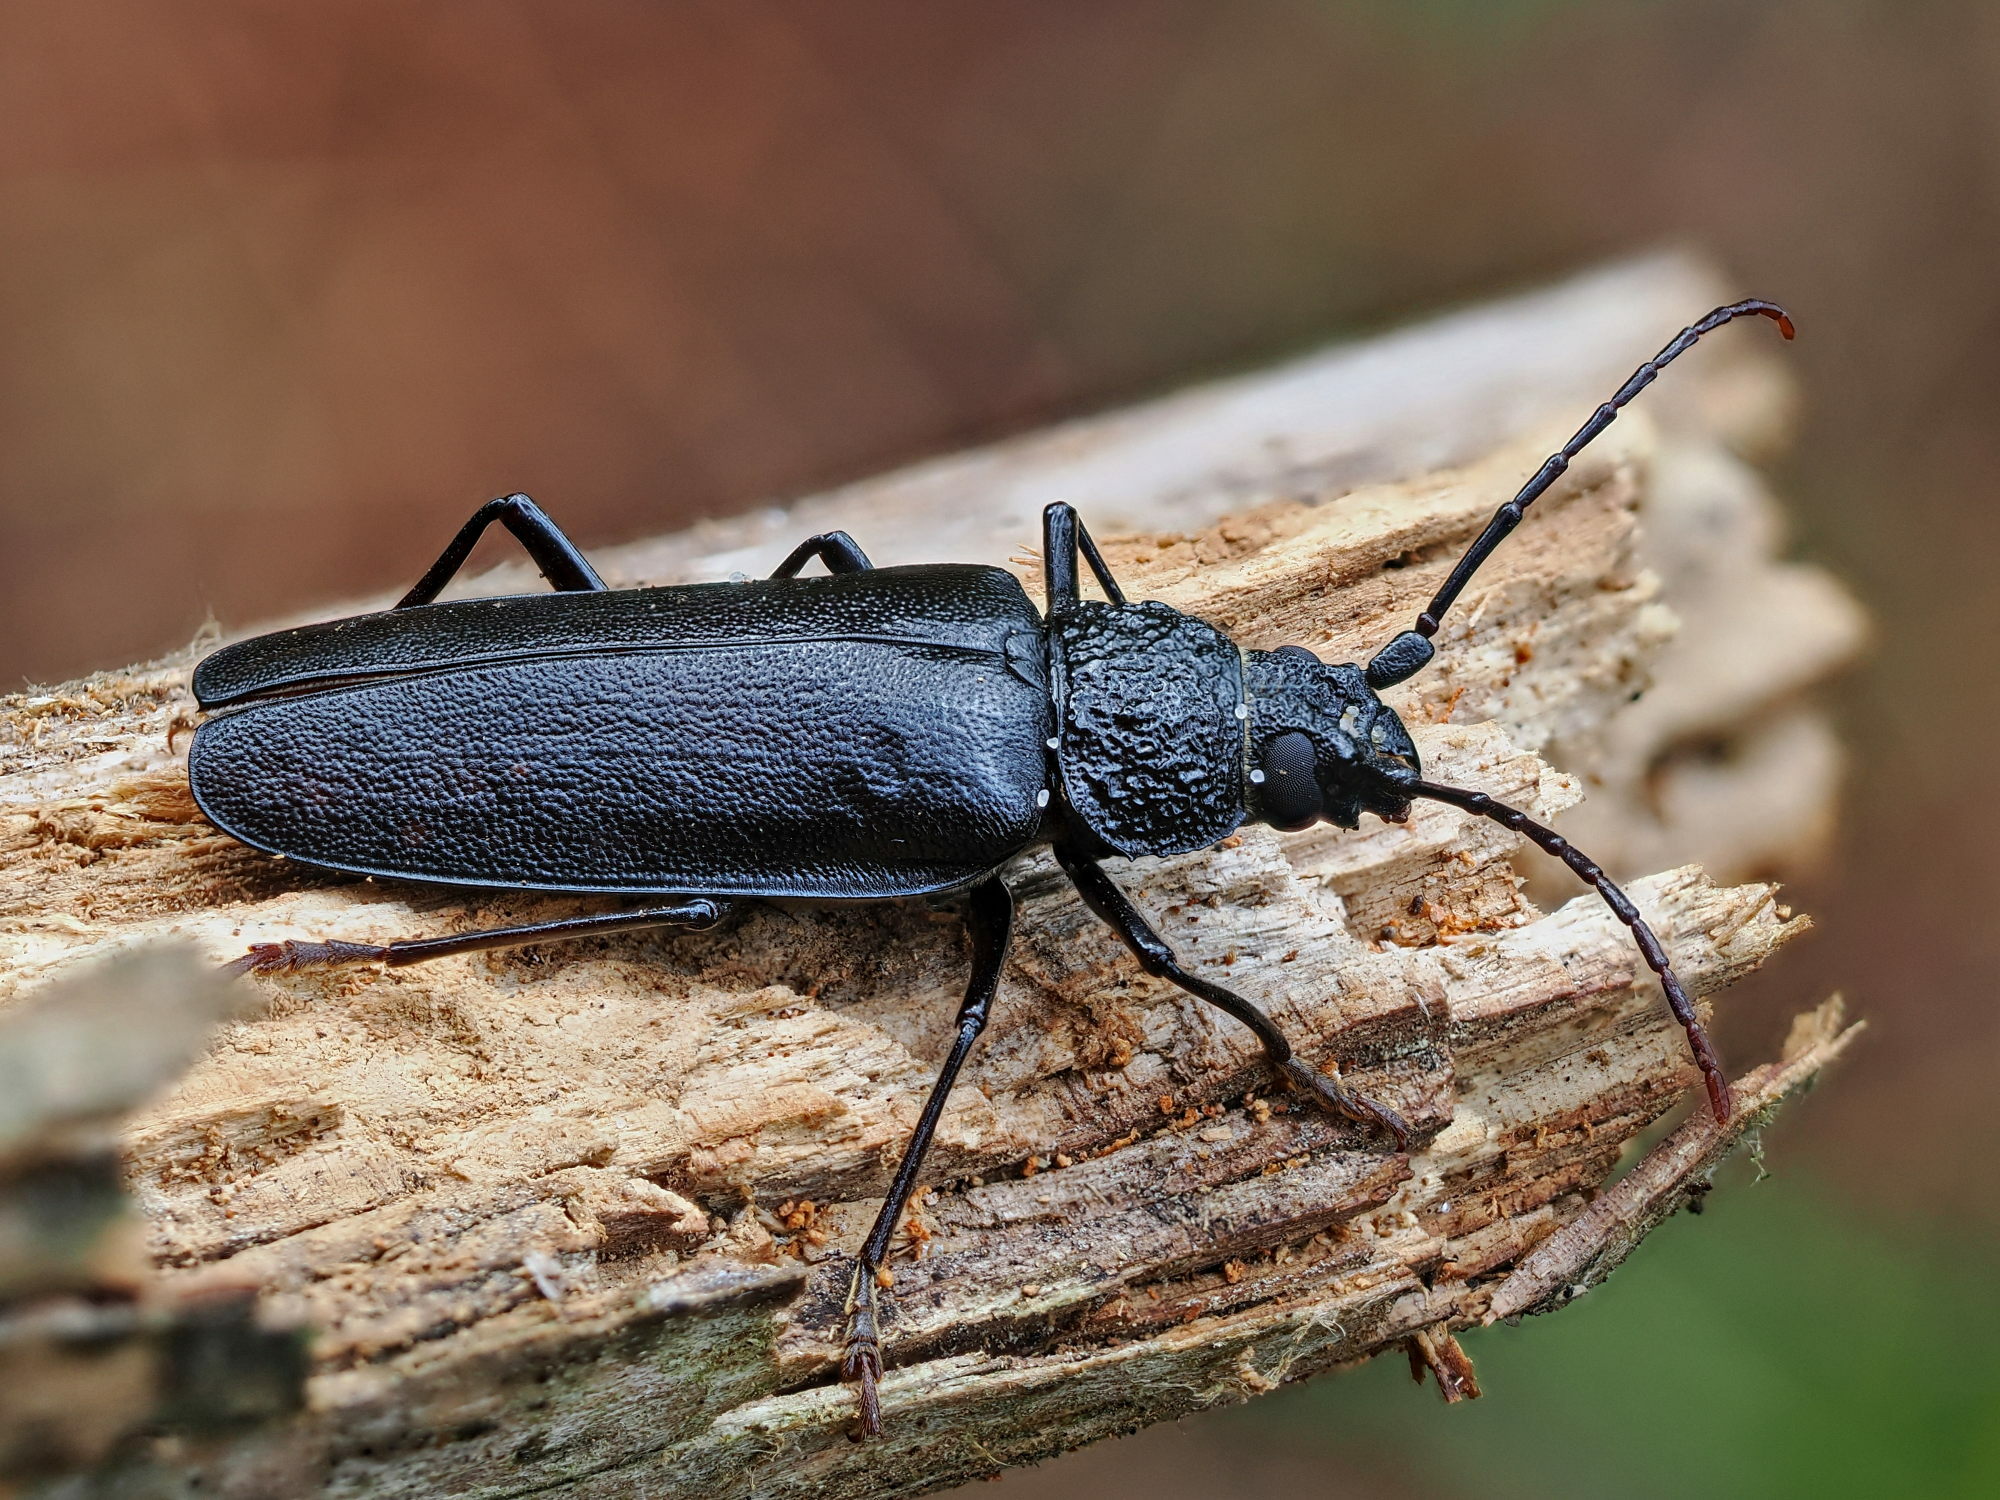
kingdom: Animalia
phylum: Arthropoda
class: Insecta
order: Coleoptera
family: Cerambycidae
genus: Ergates
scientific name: Ergates faber
